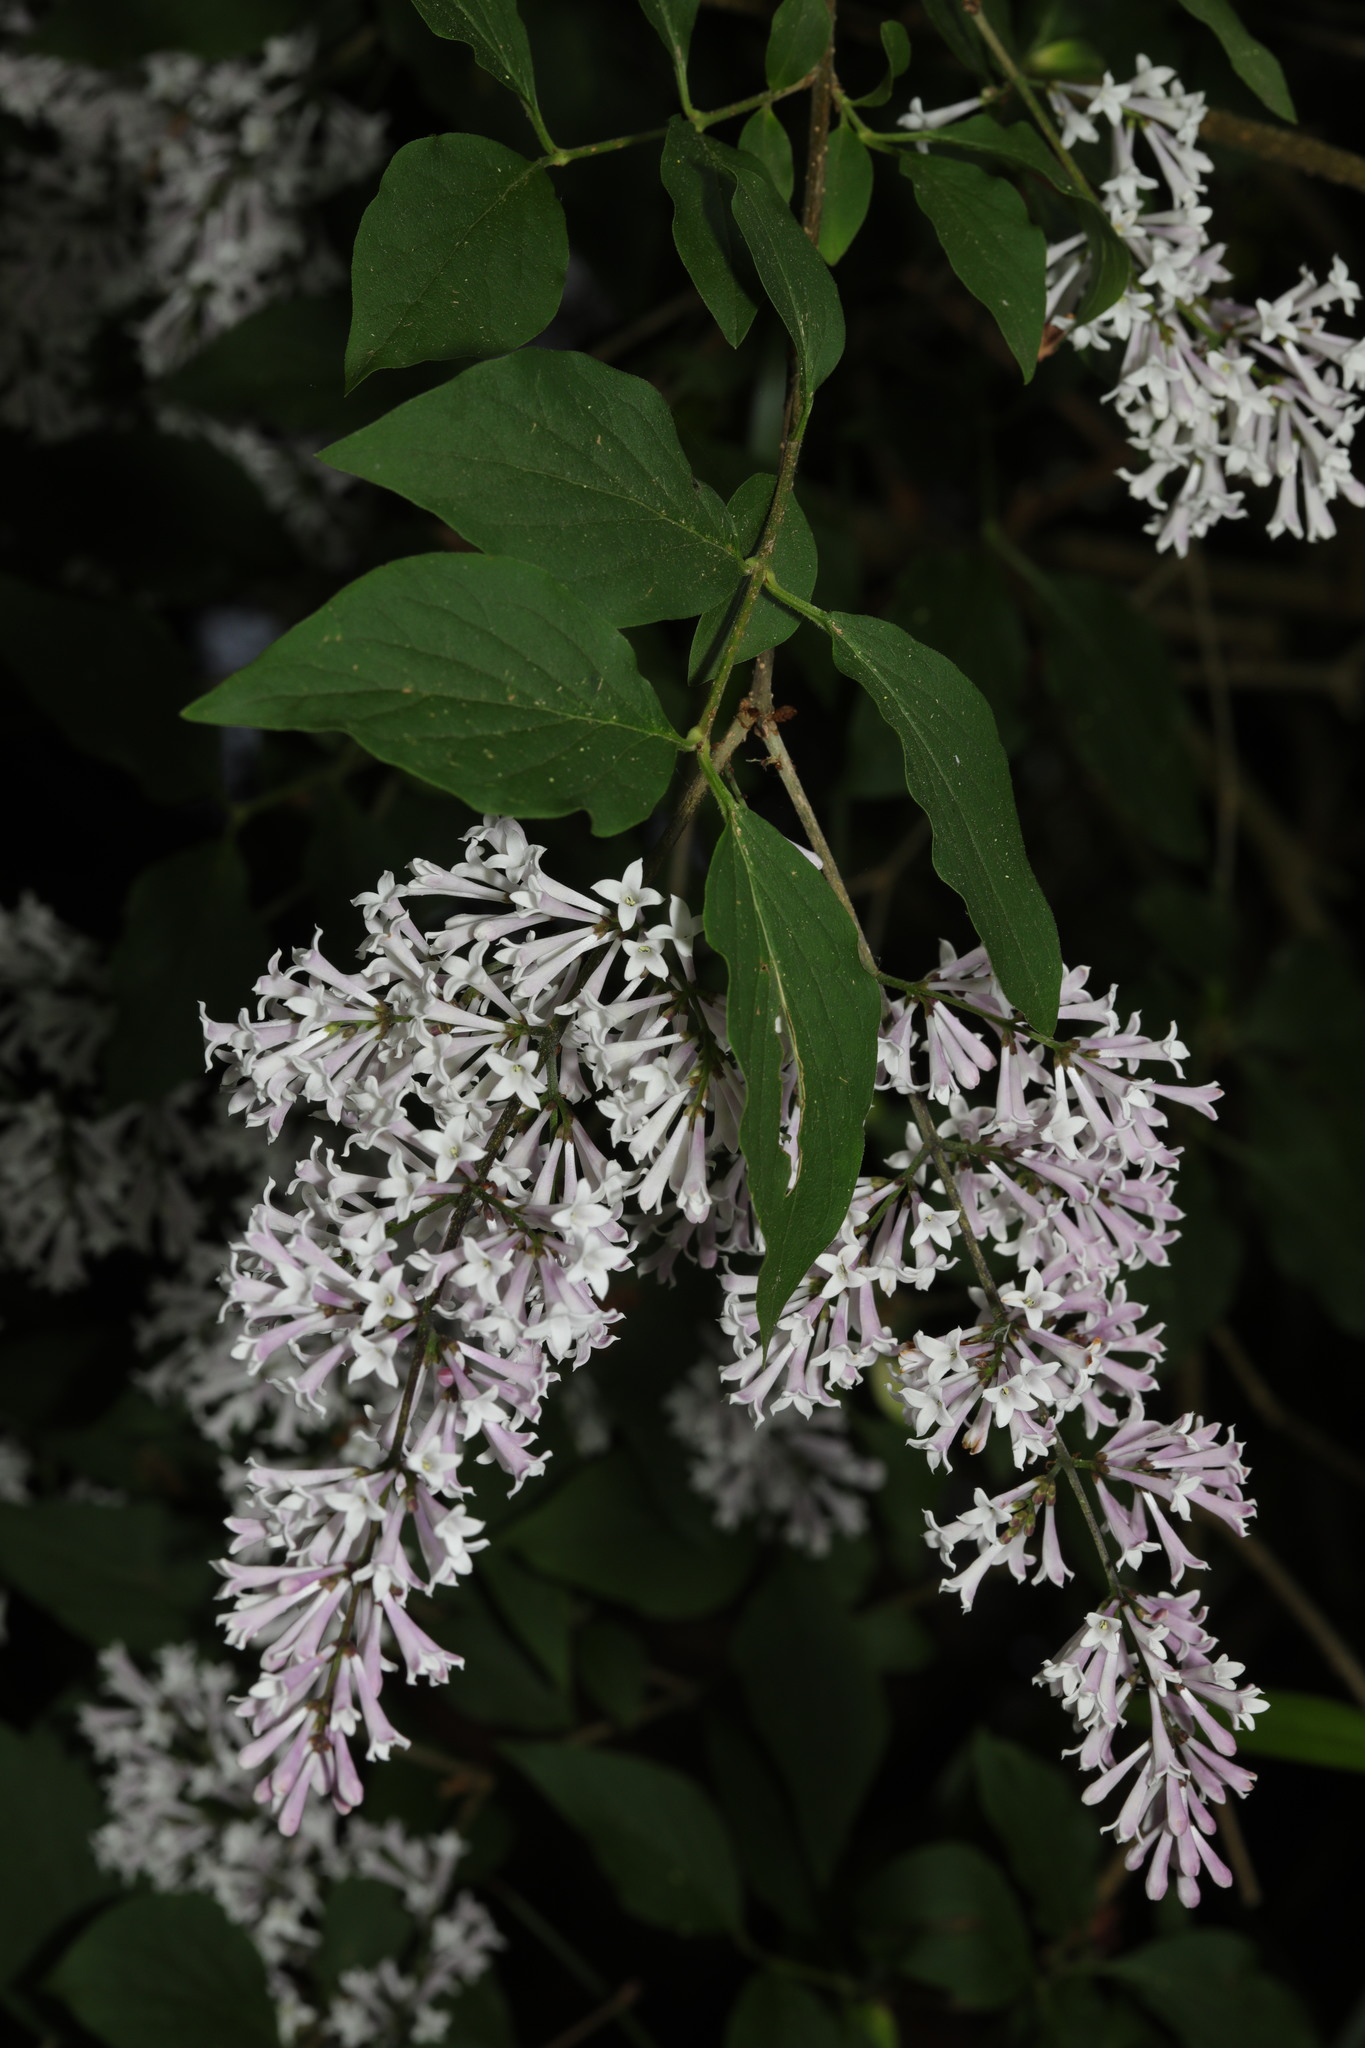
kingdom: Plantae
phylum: Tracheophyta
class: Magnoliopsida
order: Lamiales
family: Oleaceae
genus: Syringa
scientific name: Syringa vulgaris
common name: Common lilac
